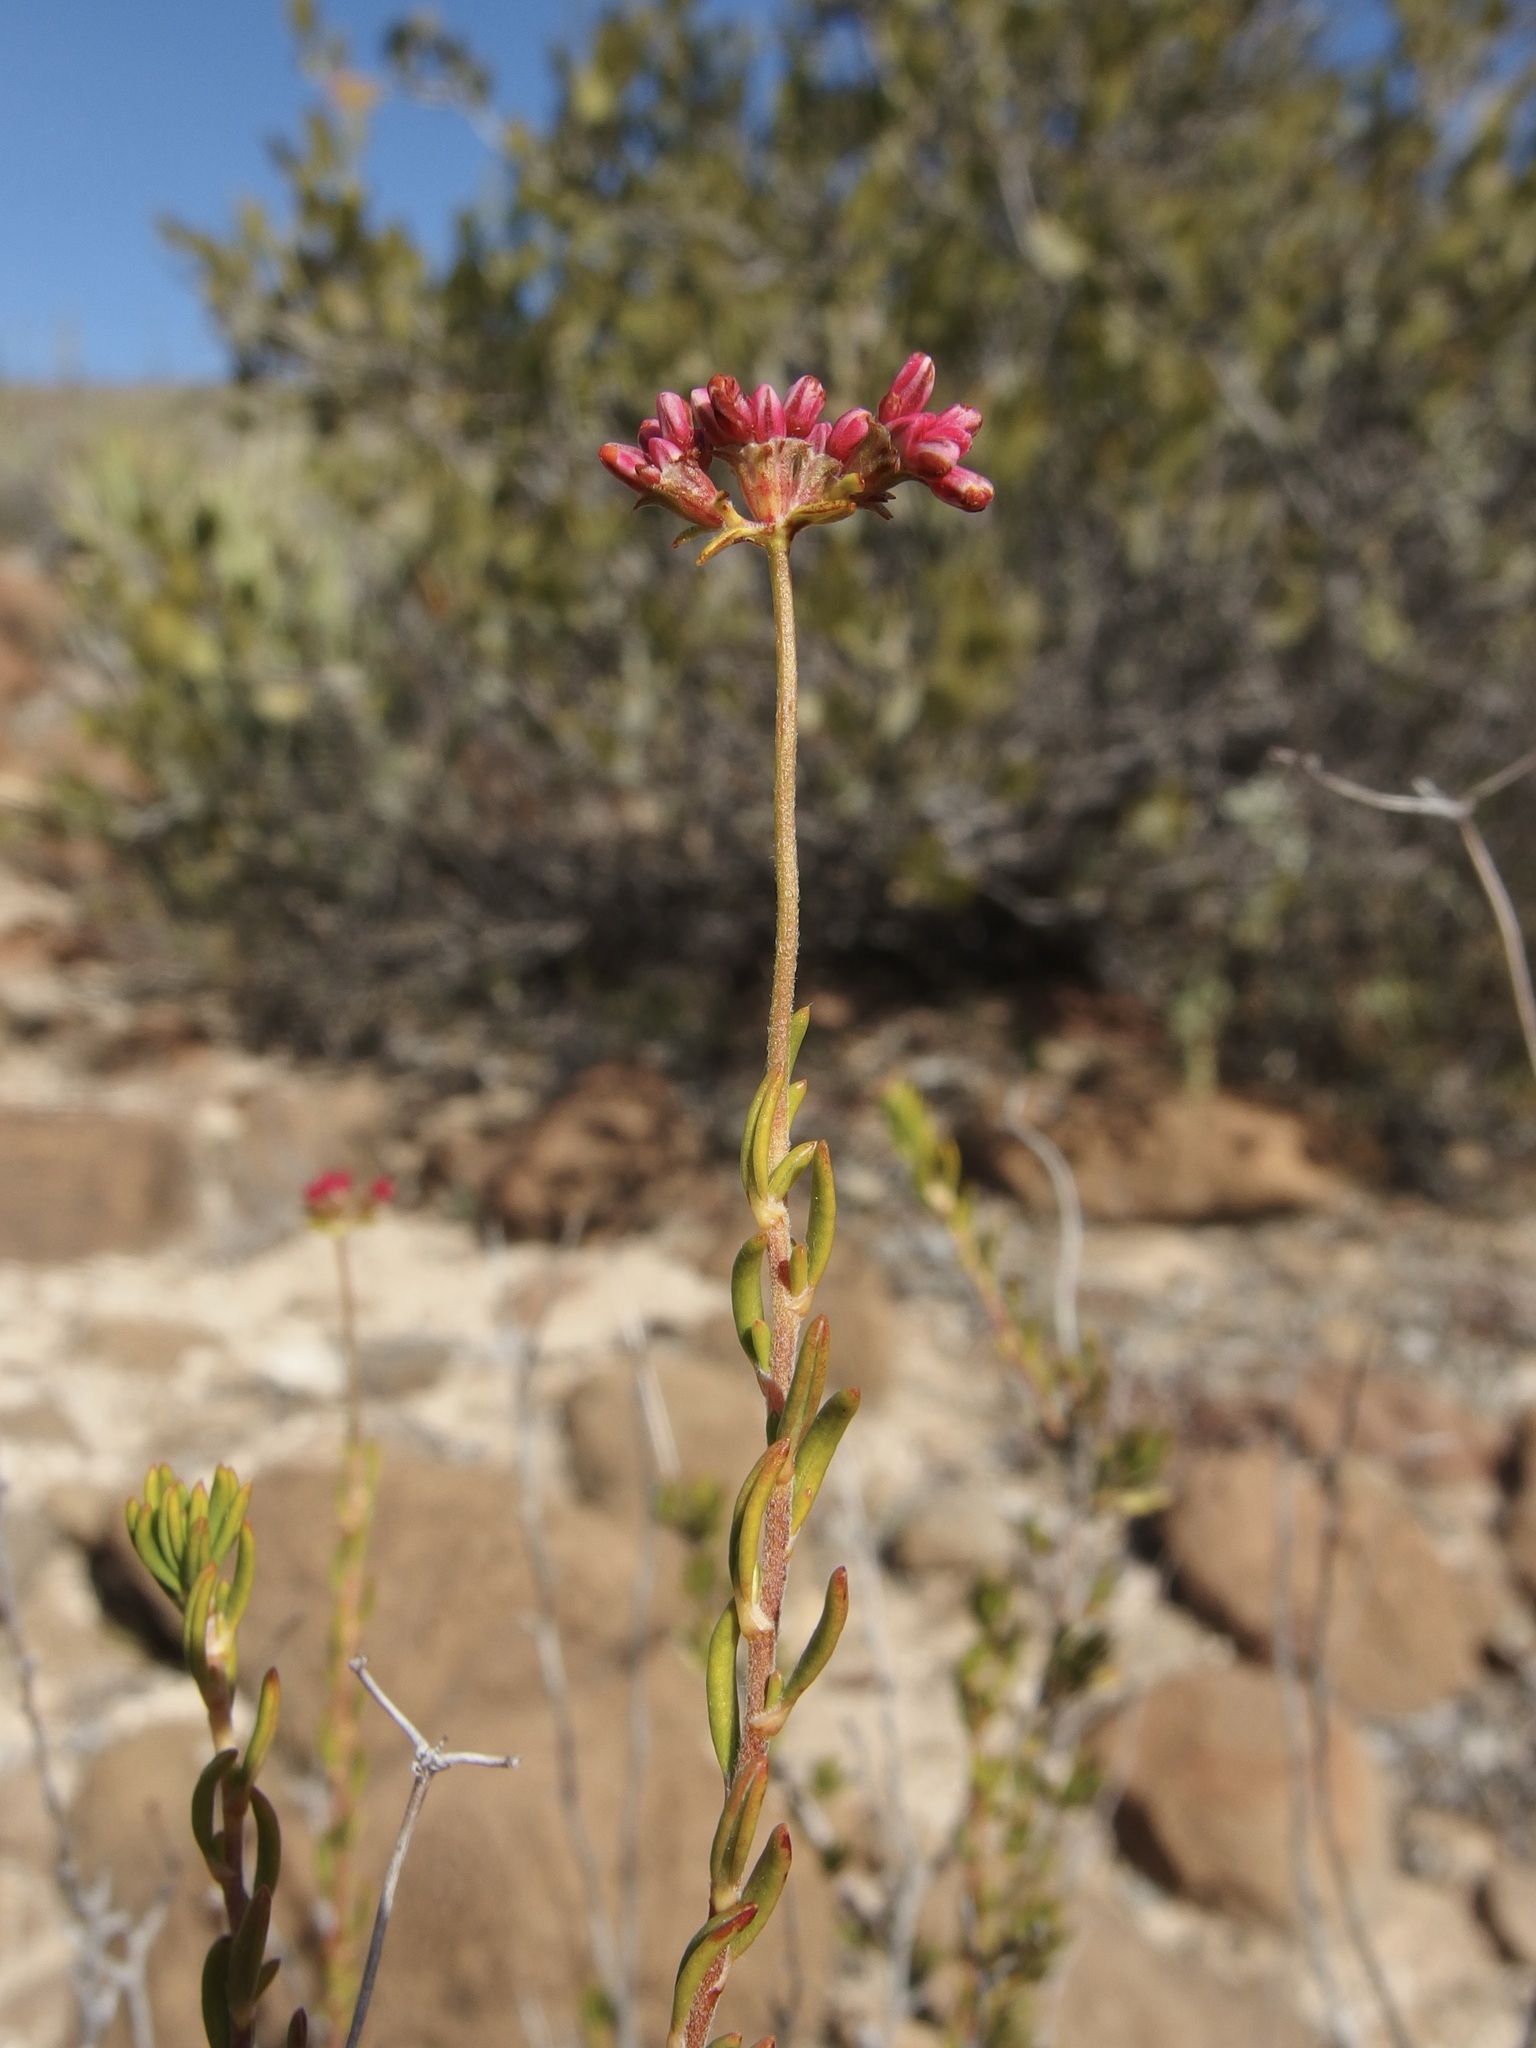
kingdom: Plantae
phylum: Tracheophyta
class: Magnoliopsida
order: Caryophyllales
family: Polygonaceae
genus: Eriogonum
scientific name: Eriogonum fasciculatum
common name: California wild buckwheat
